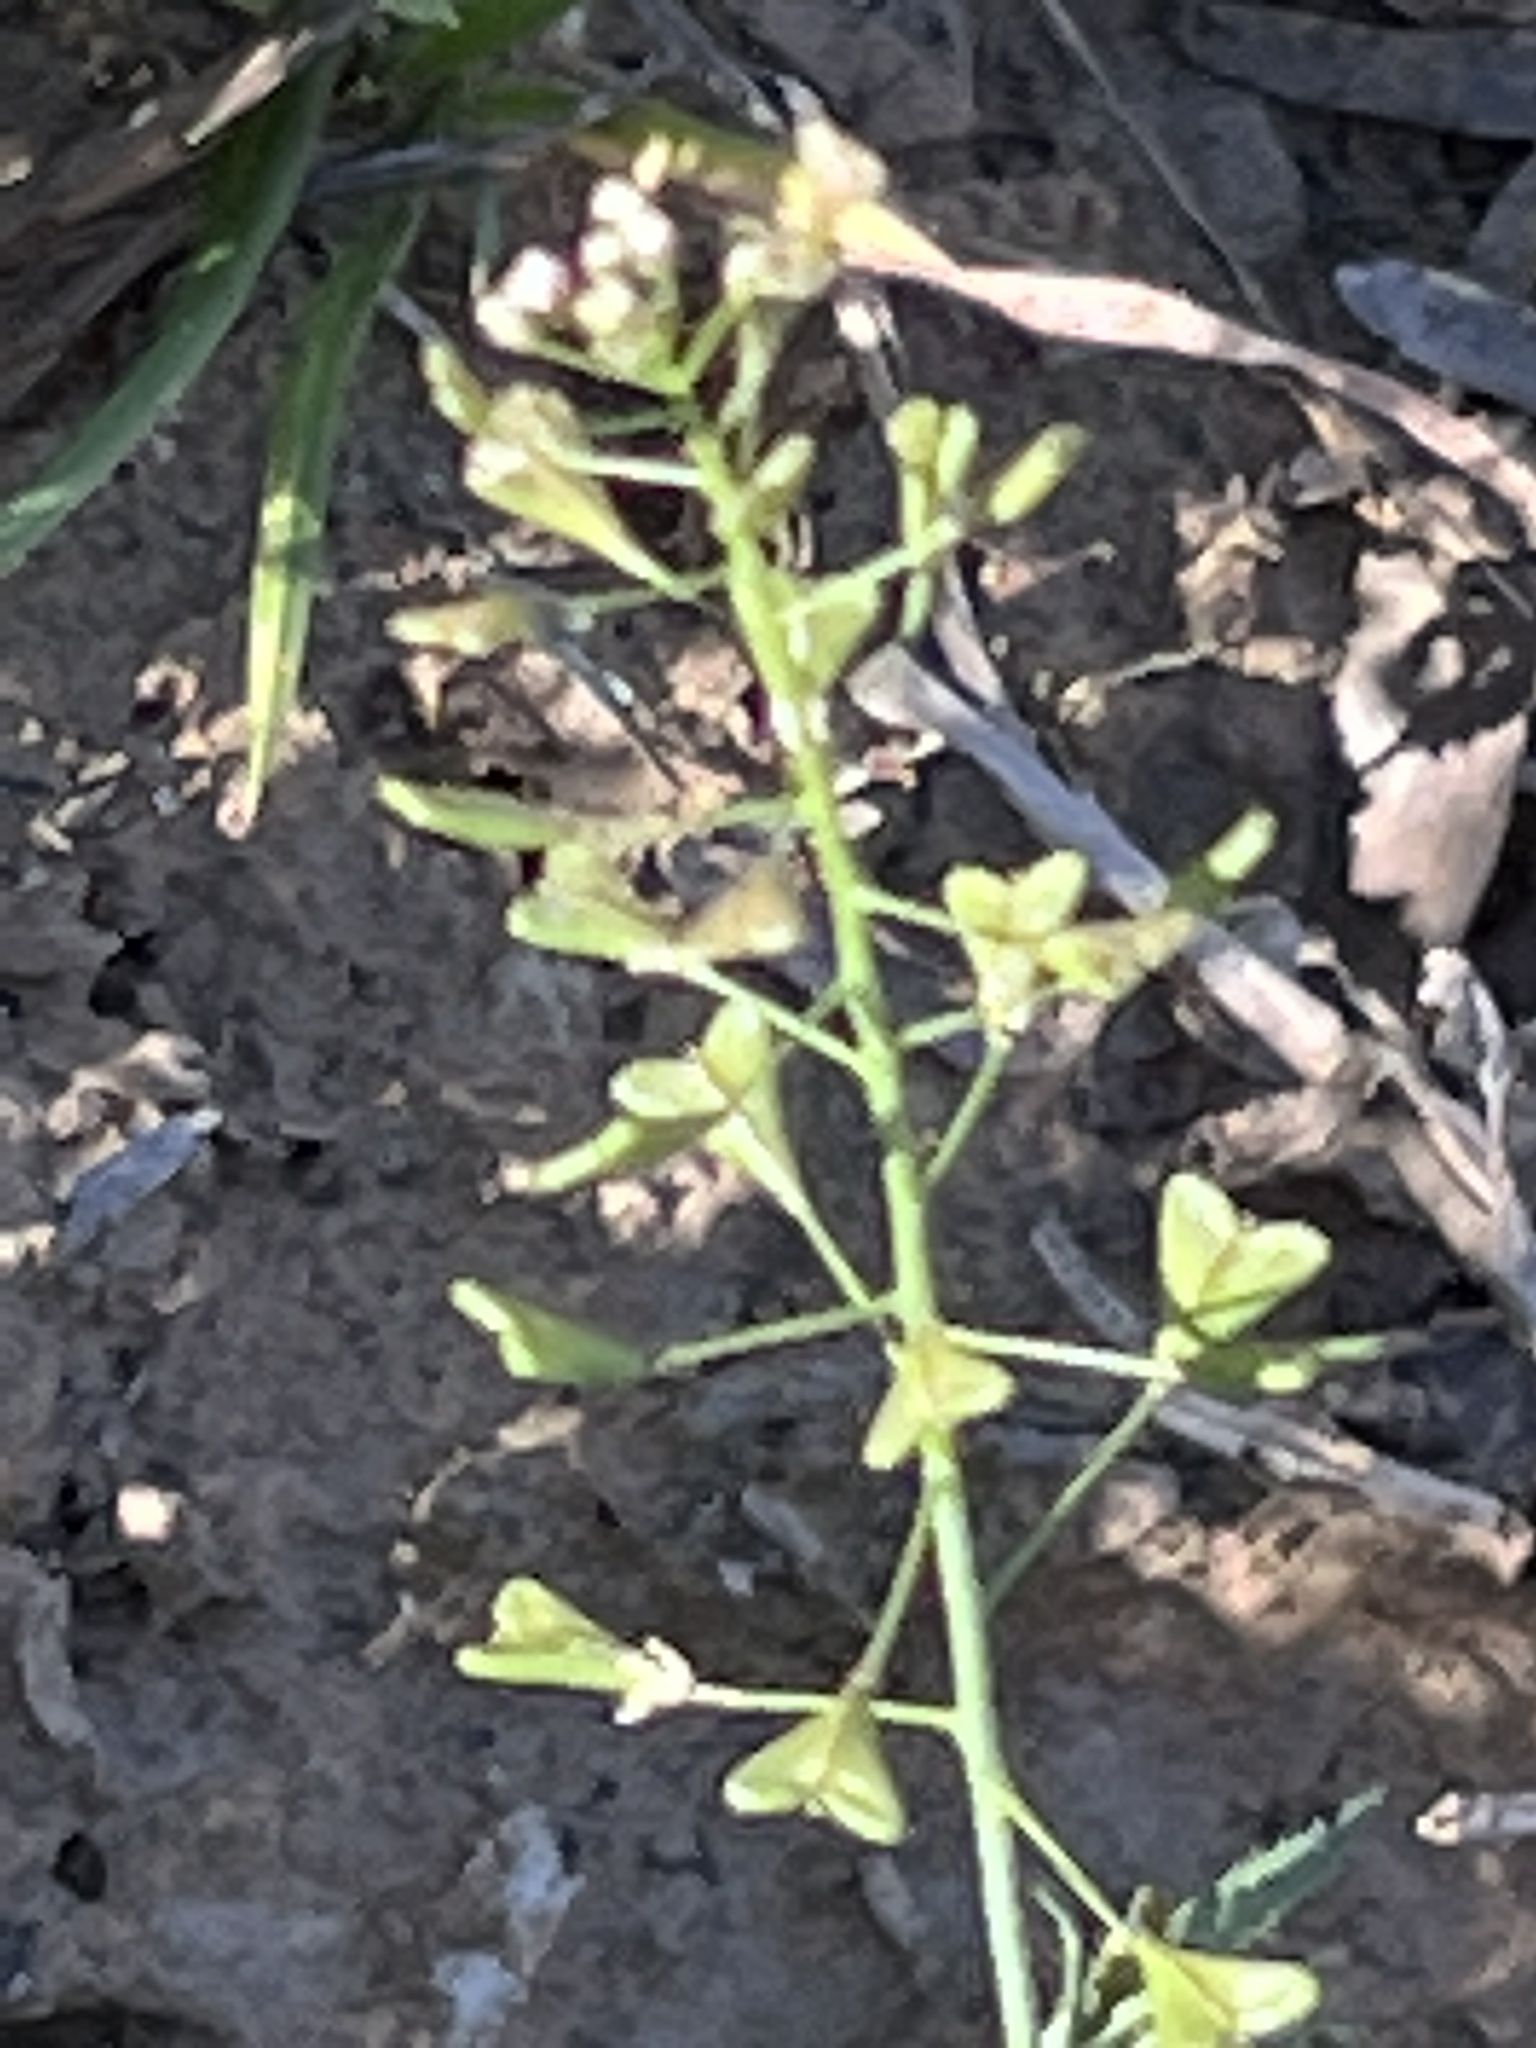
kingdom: Plantae
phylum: Tracheophyta
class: Magnoliopsida
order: Brassicales
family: Brassicaceae
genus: Capsella
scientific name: Capsella bursa-pastoris
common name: Shepherd's purse
